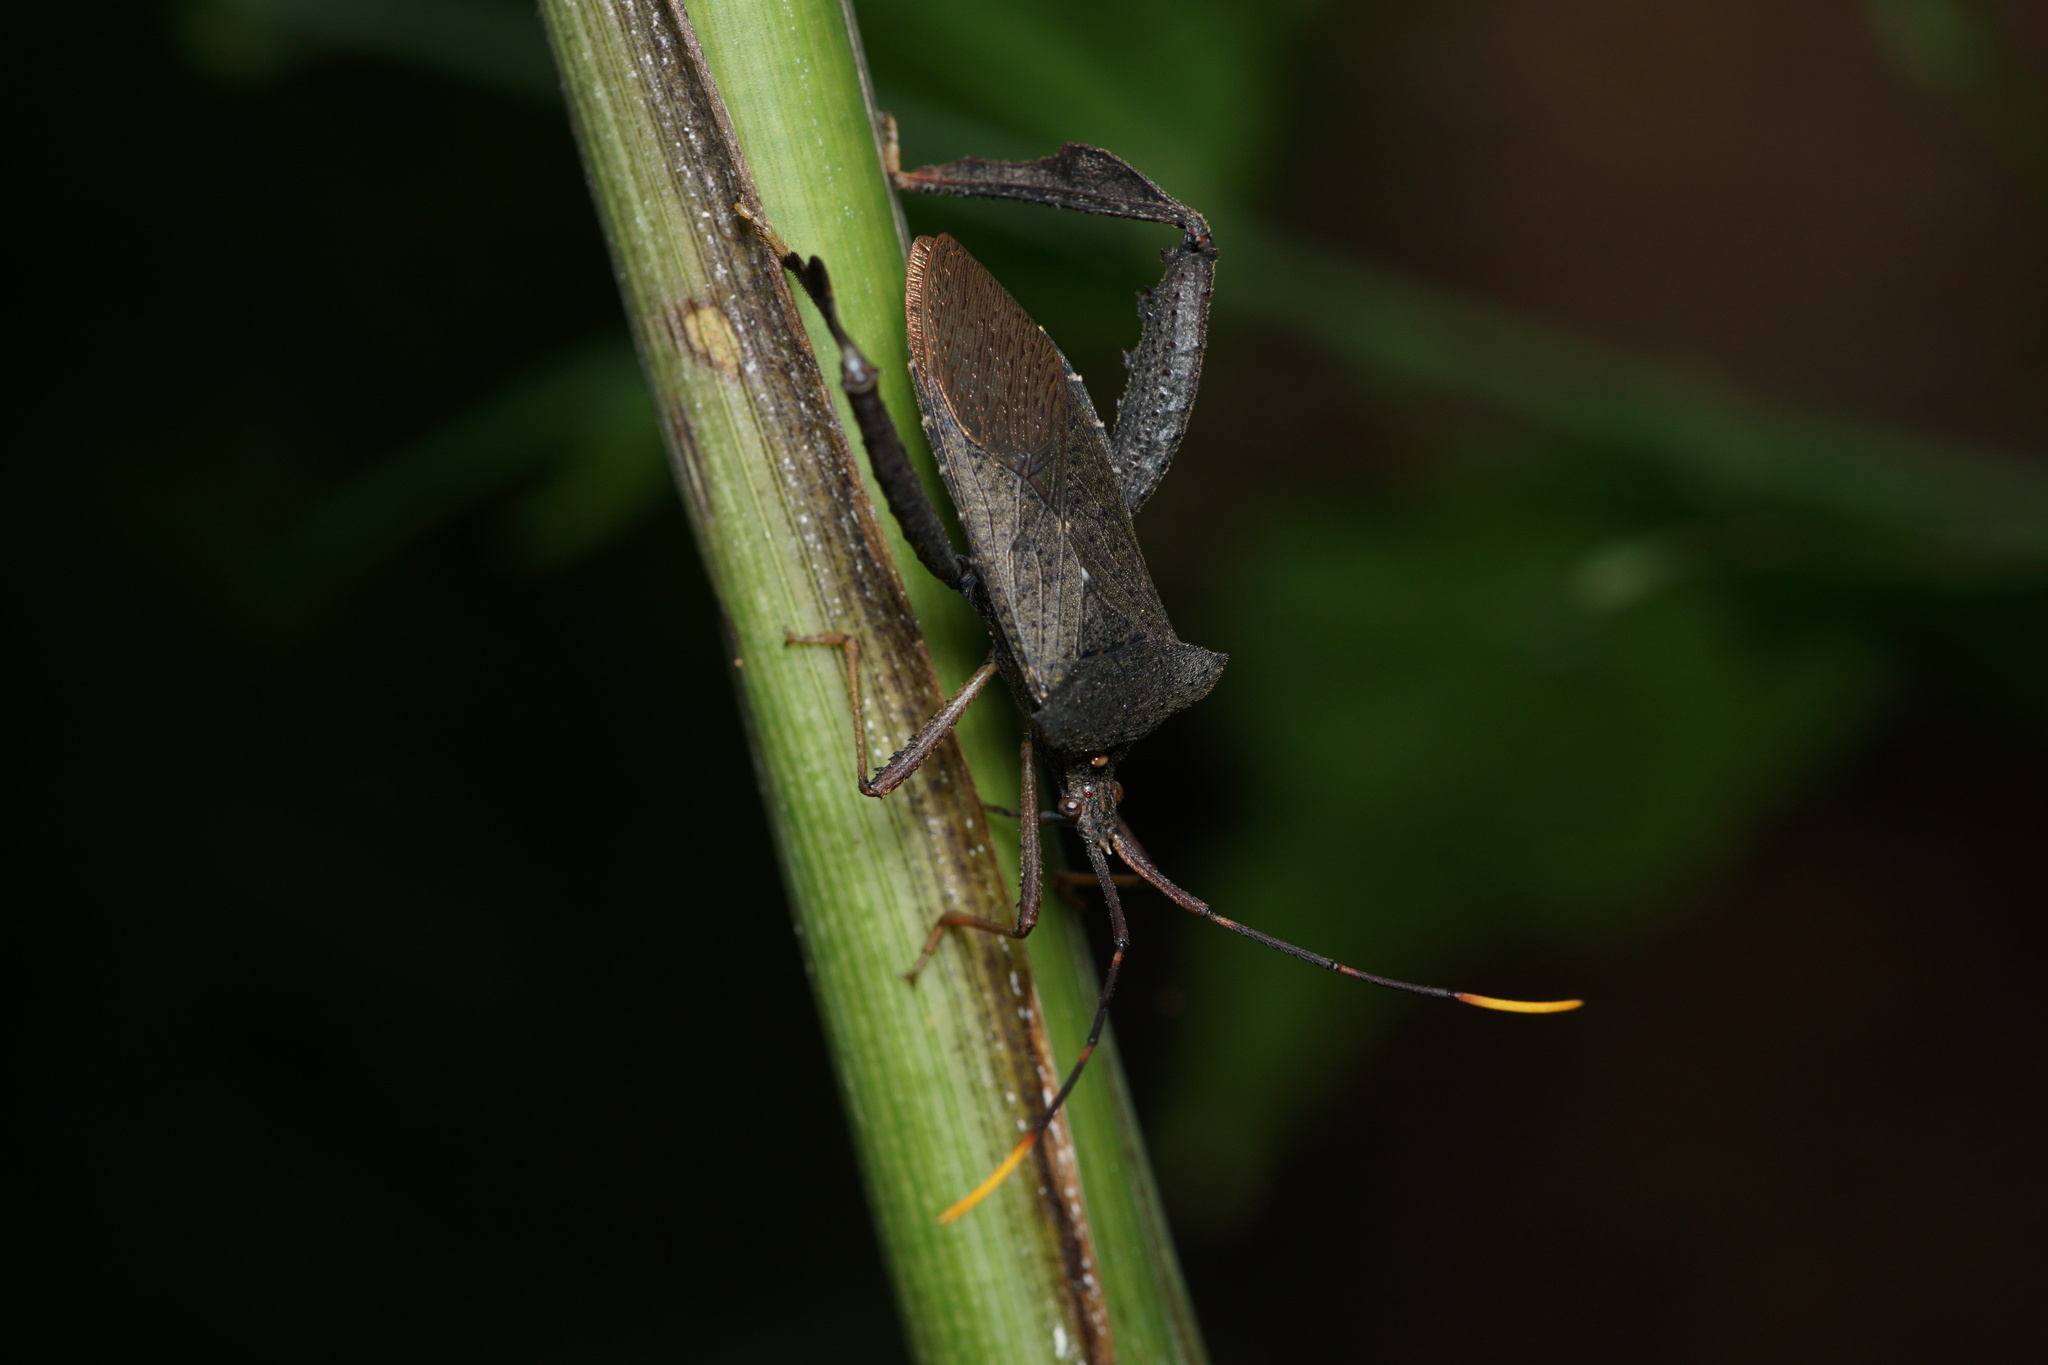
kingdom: Animalia
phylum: Arthropoda
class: Insecta
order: Hemiptera
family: Coreidae
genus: Empedocles
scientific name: Empedocles luridus
